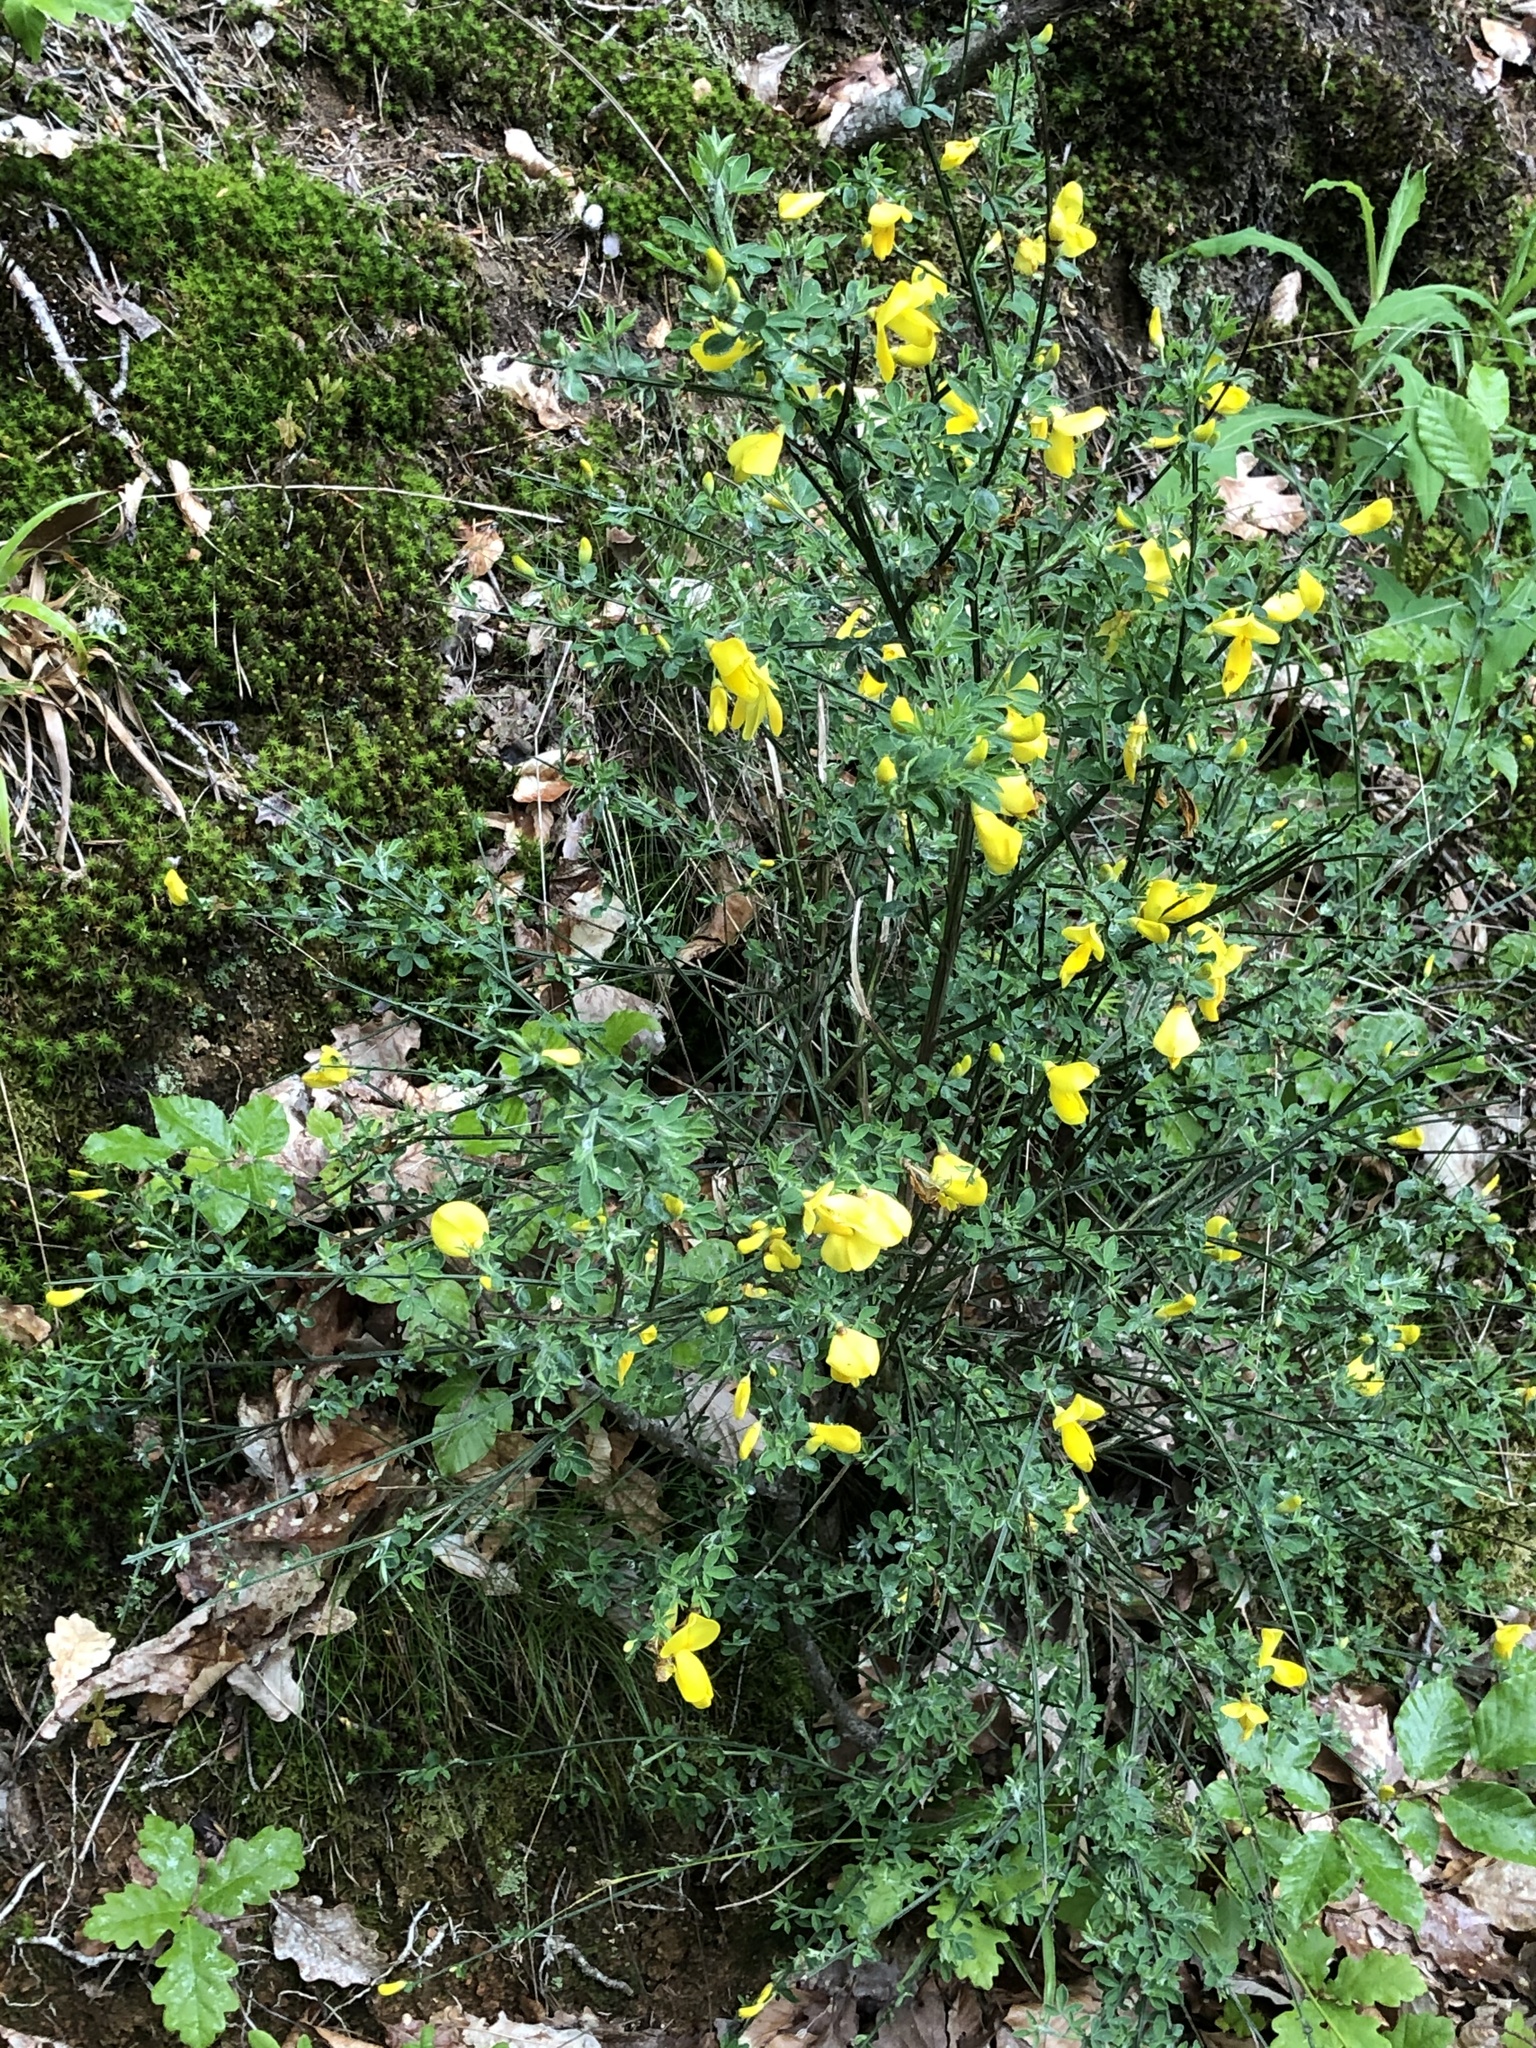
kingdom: Plantae
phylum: Tracheophyta
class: Magnoliopsida
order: Fabales
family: Fabaceae
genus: Cytisus
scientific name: Cytisus scoparius
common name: Scotch broom
